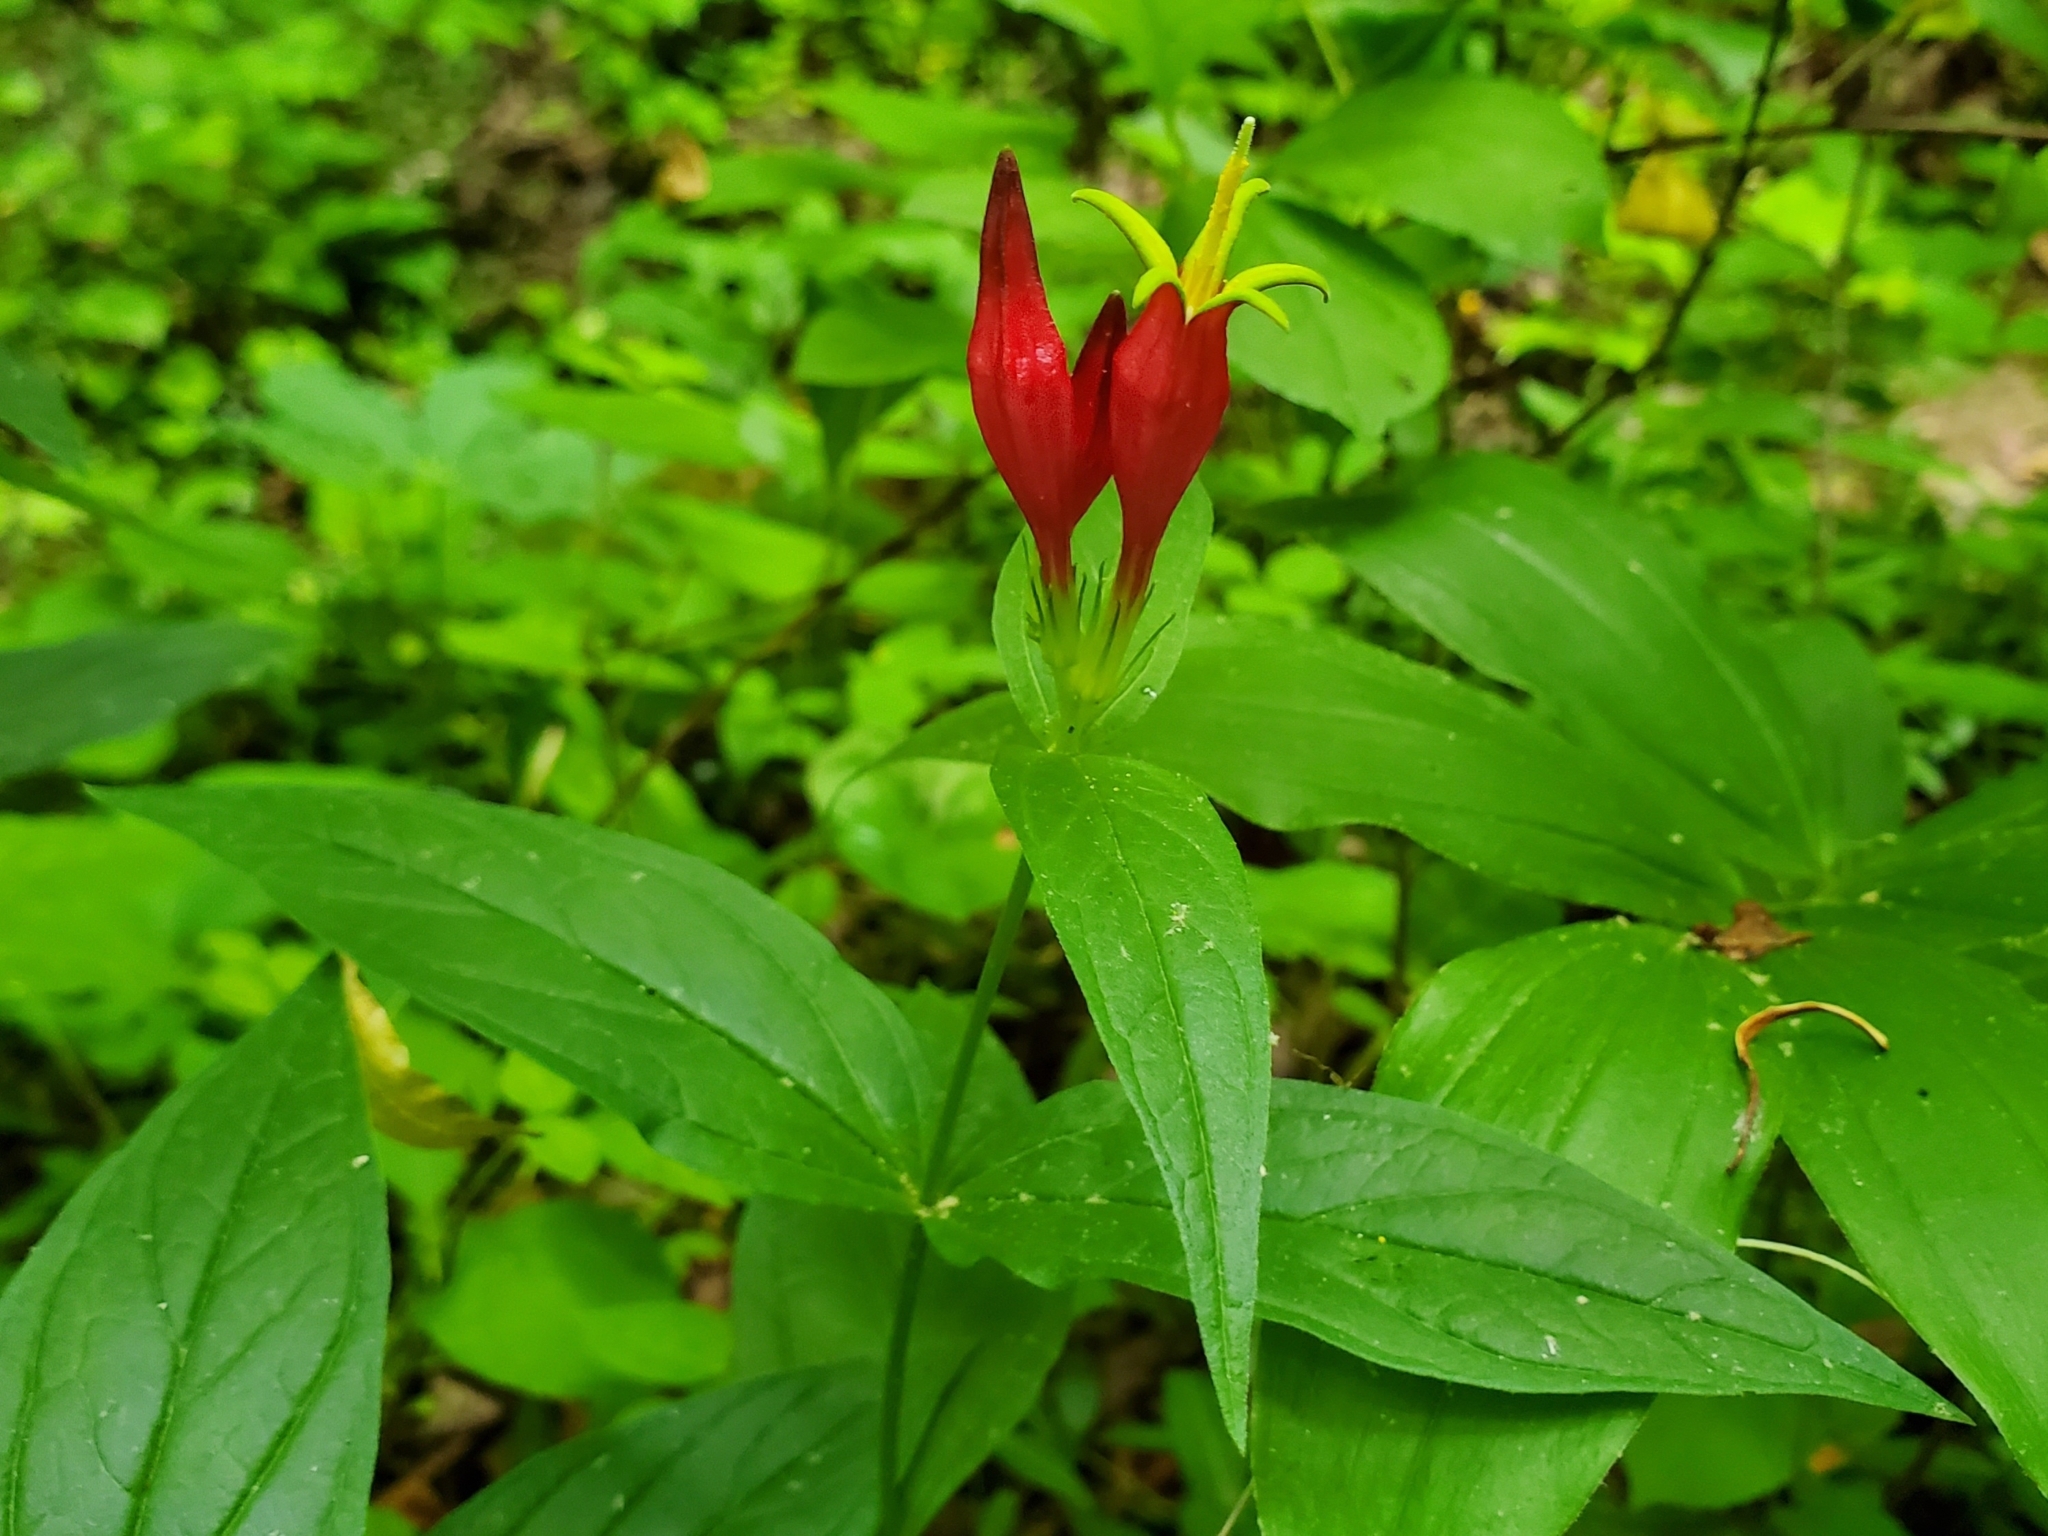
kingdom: Plantae
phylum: Tracheophyta
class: Magnoliopsida
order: Gentianales
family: Loganiaceae
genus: Spigelia
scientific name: Spigelia marilandica
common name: Indian-pink
